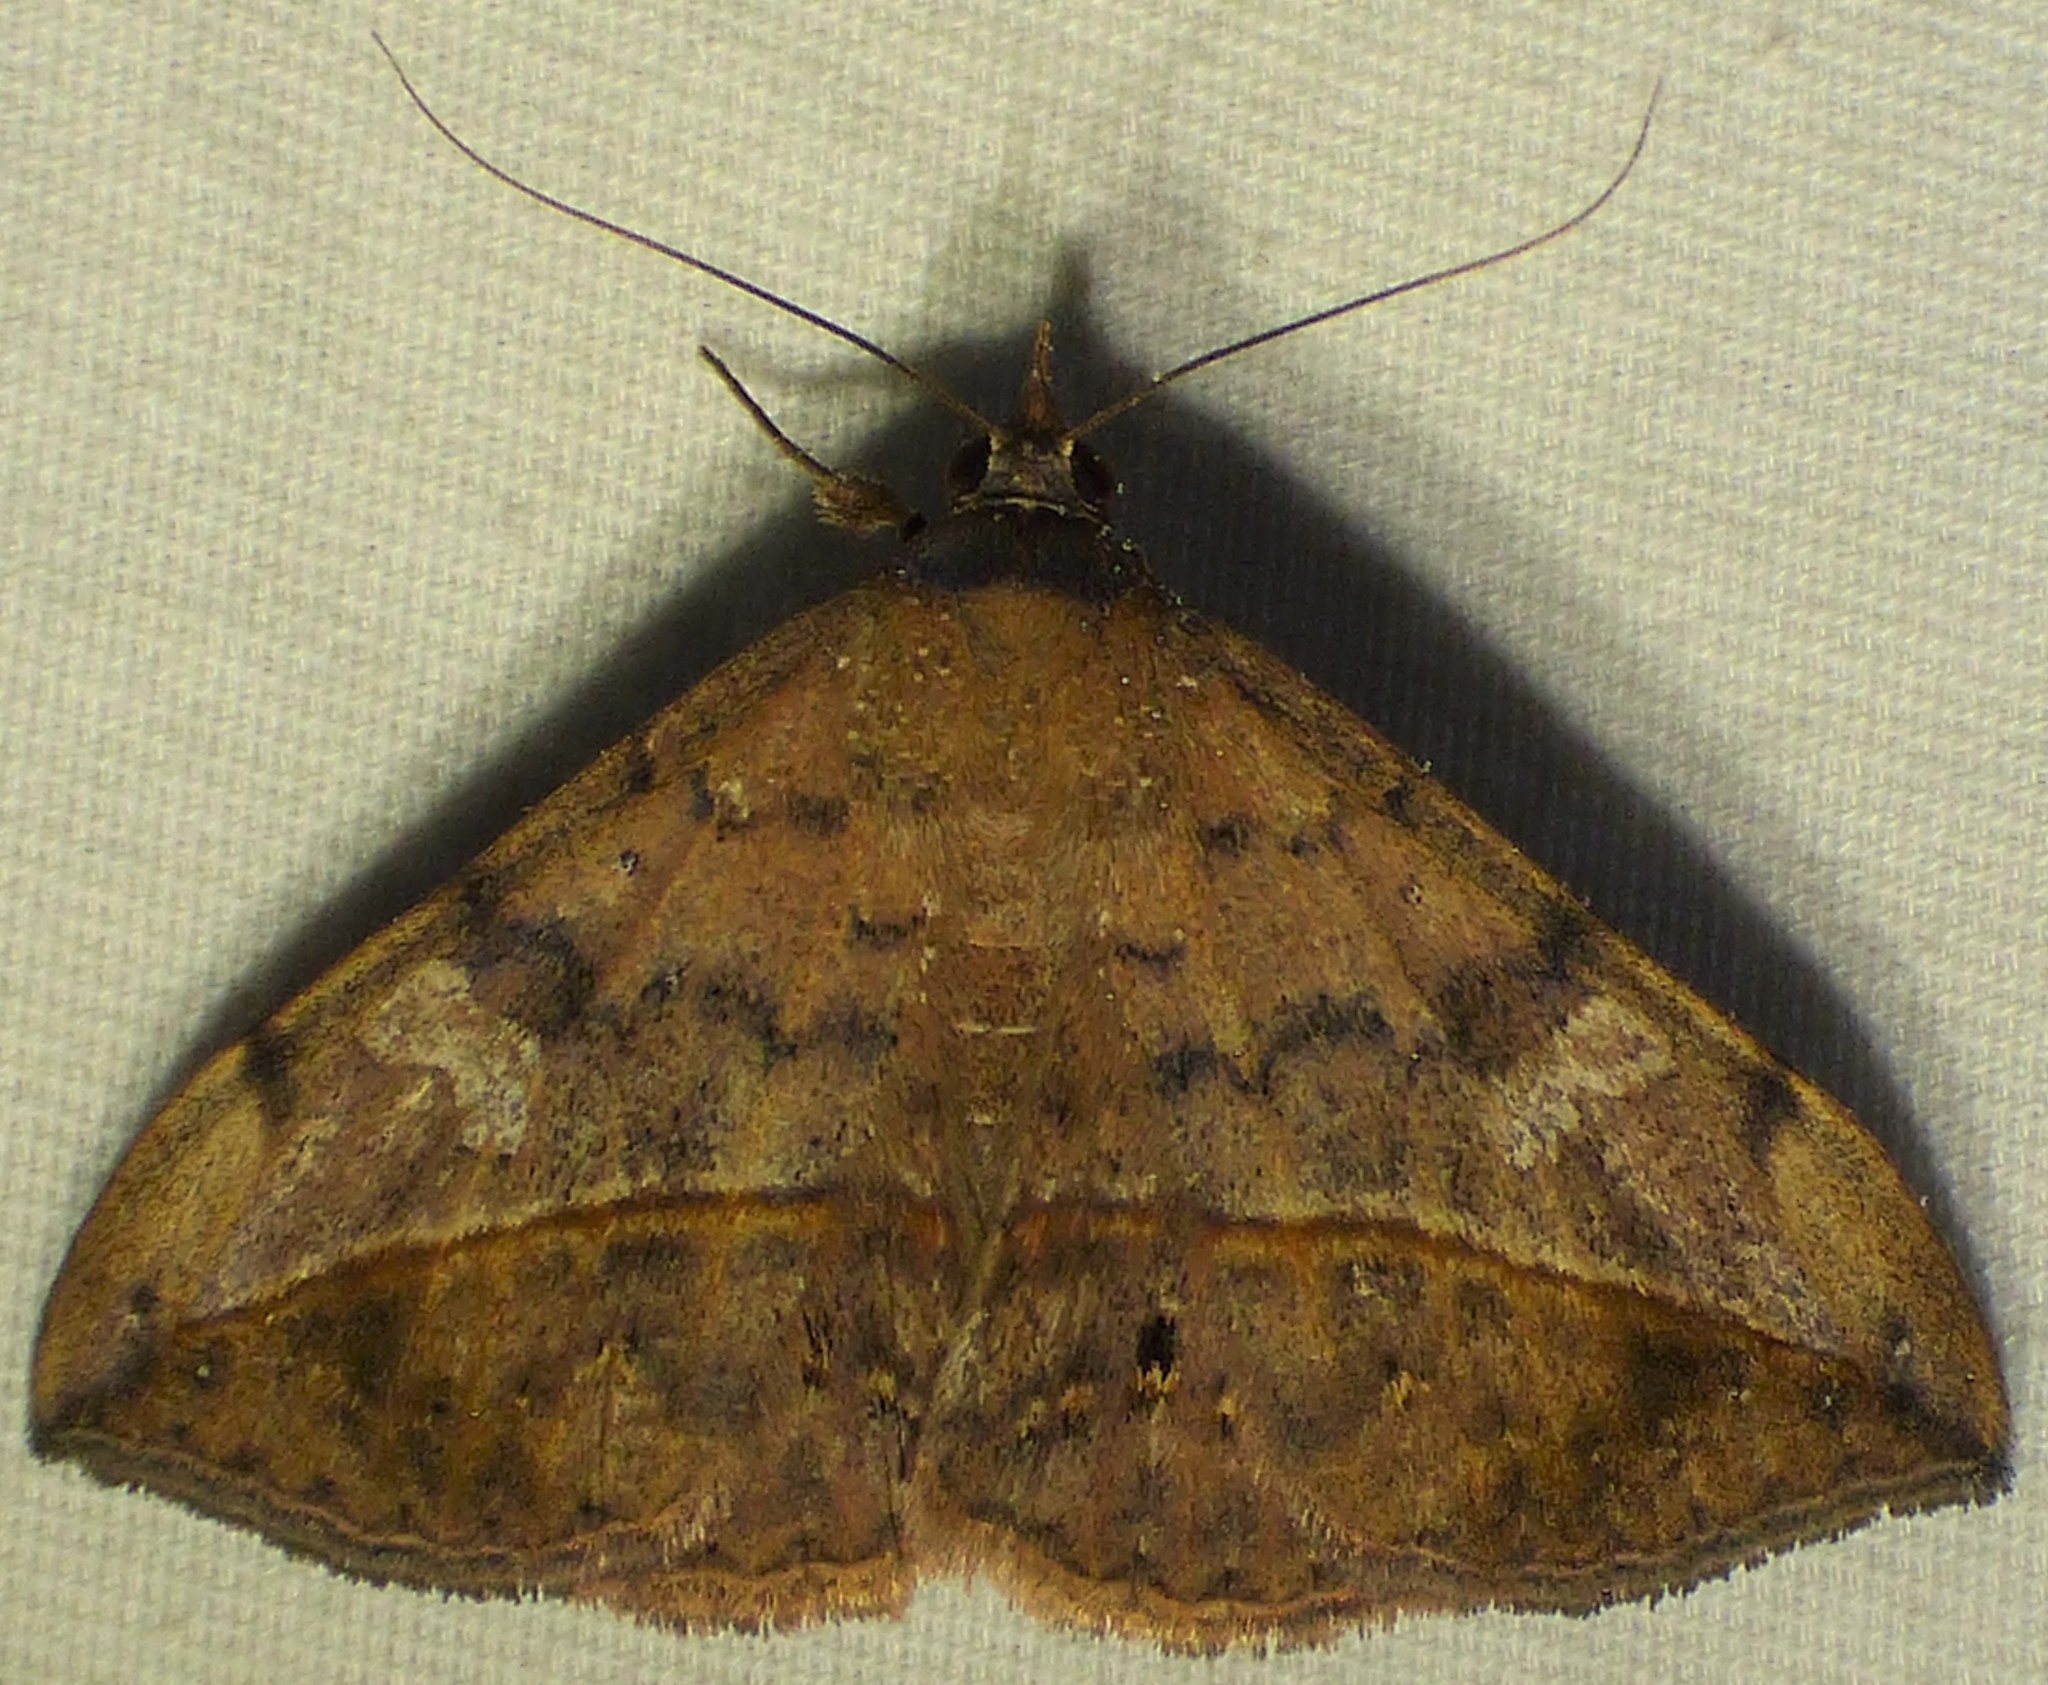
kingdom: Animalia
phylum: Arthropoda
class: Insecta
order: Lepidoptera
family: Erebidae
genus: Anticarsia
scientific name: Anticarsia gemmatalis
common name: Cutworm moth
